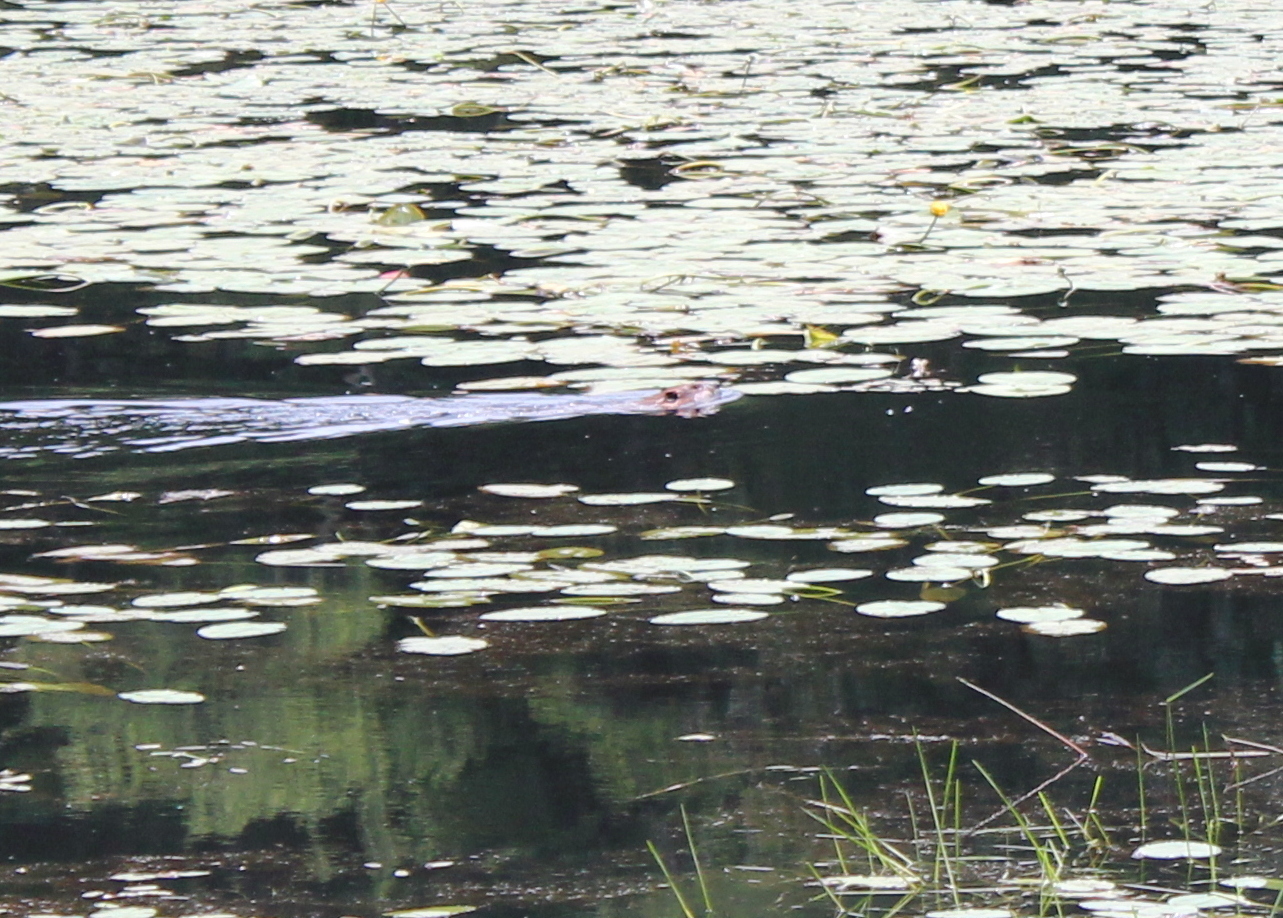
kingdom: Animalia
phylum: Chordata
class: Mammalia
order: Rodentia
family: Castoridae
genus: Castor
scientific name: Castor canadensis
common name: American beaver
